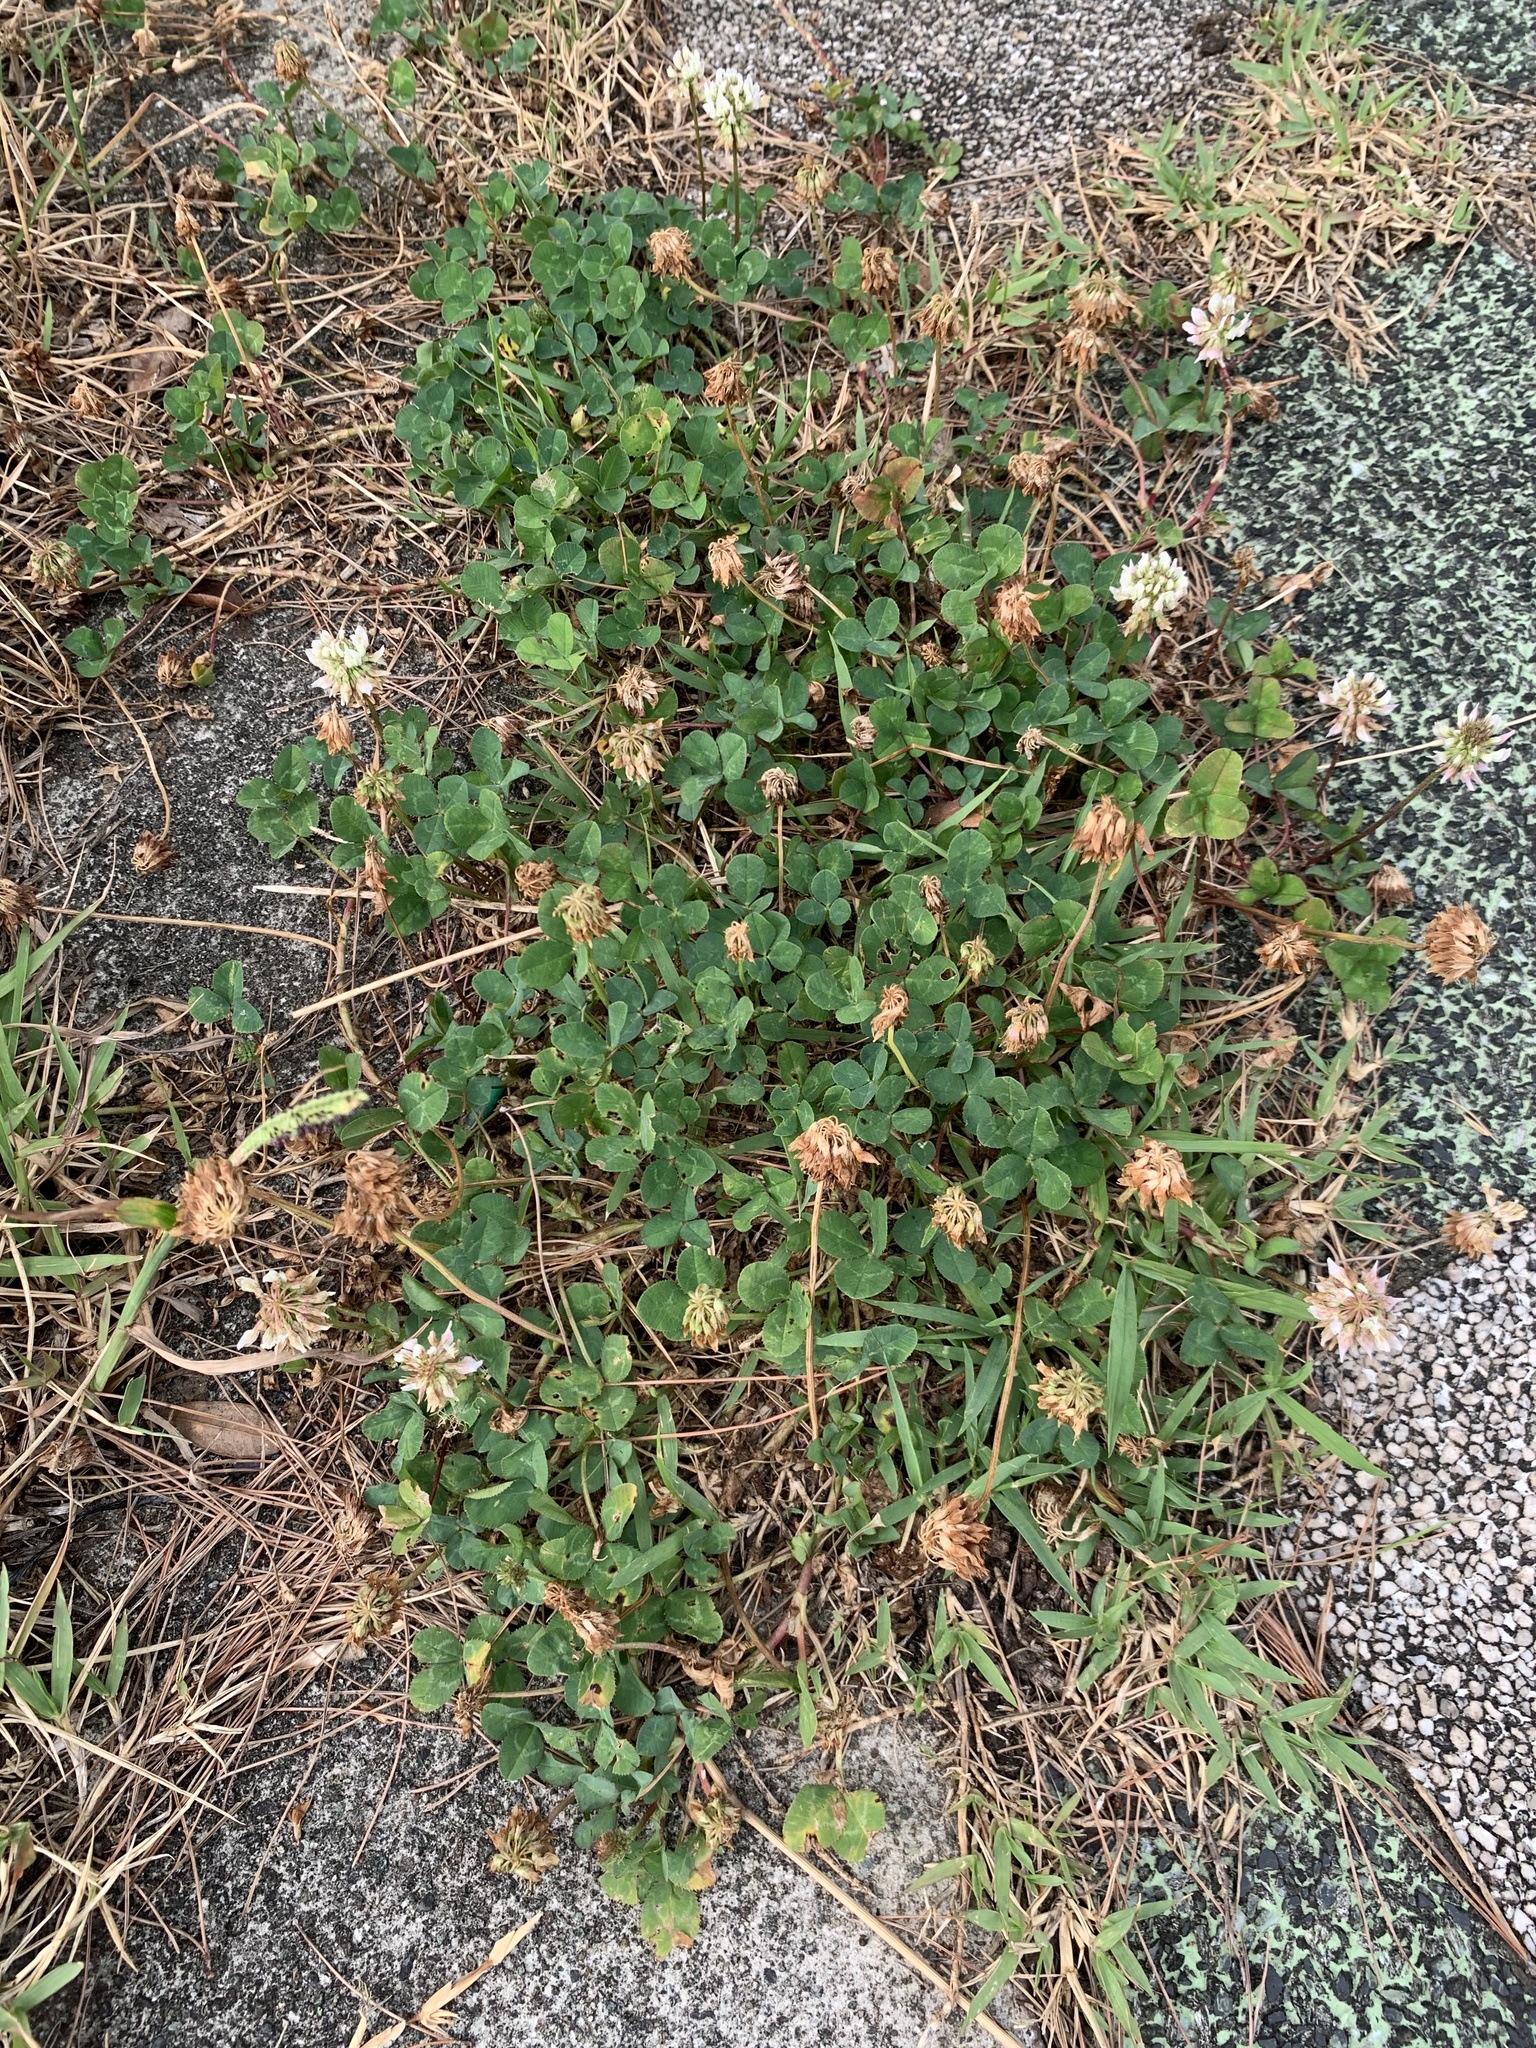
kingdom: Plantae
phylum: Tracheophyta
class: Magnoliopsida
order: Fabales
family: Fabaceae
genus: Trifolium
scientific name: Trifolium repens
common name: White clover
